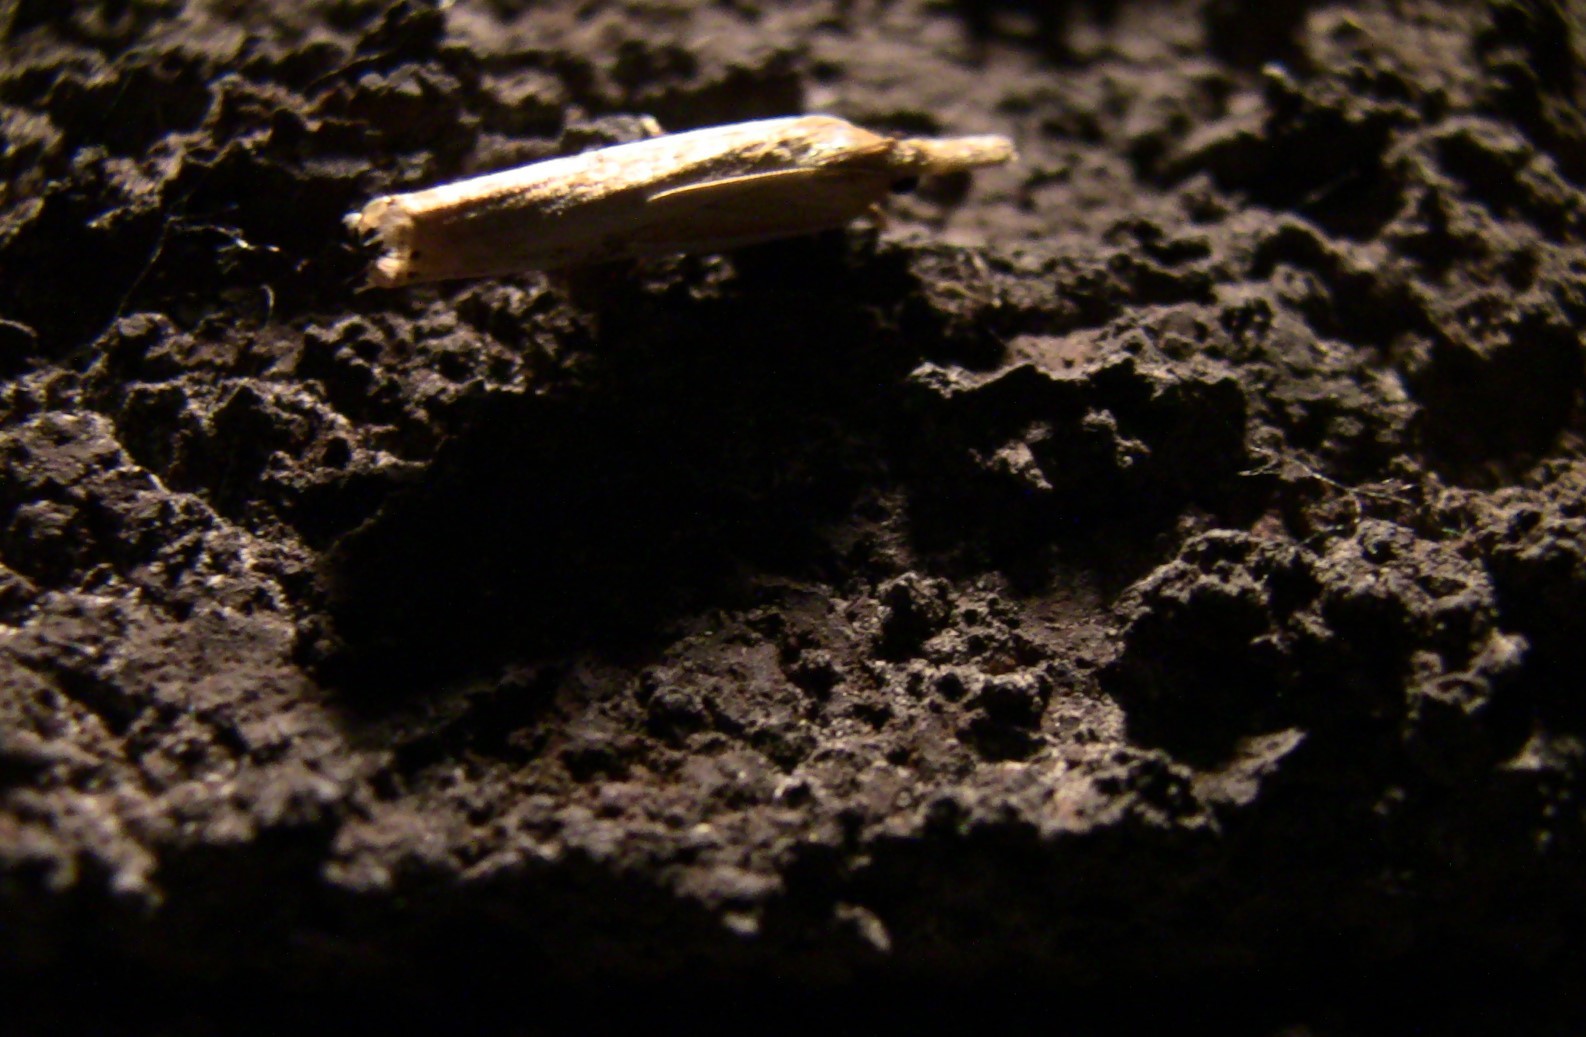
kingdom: Animalia
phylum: Arthropoda
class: Insecta
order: Lepidoptera
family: Crambidae
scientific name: Crambidae
